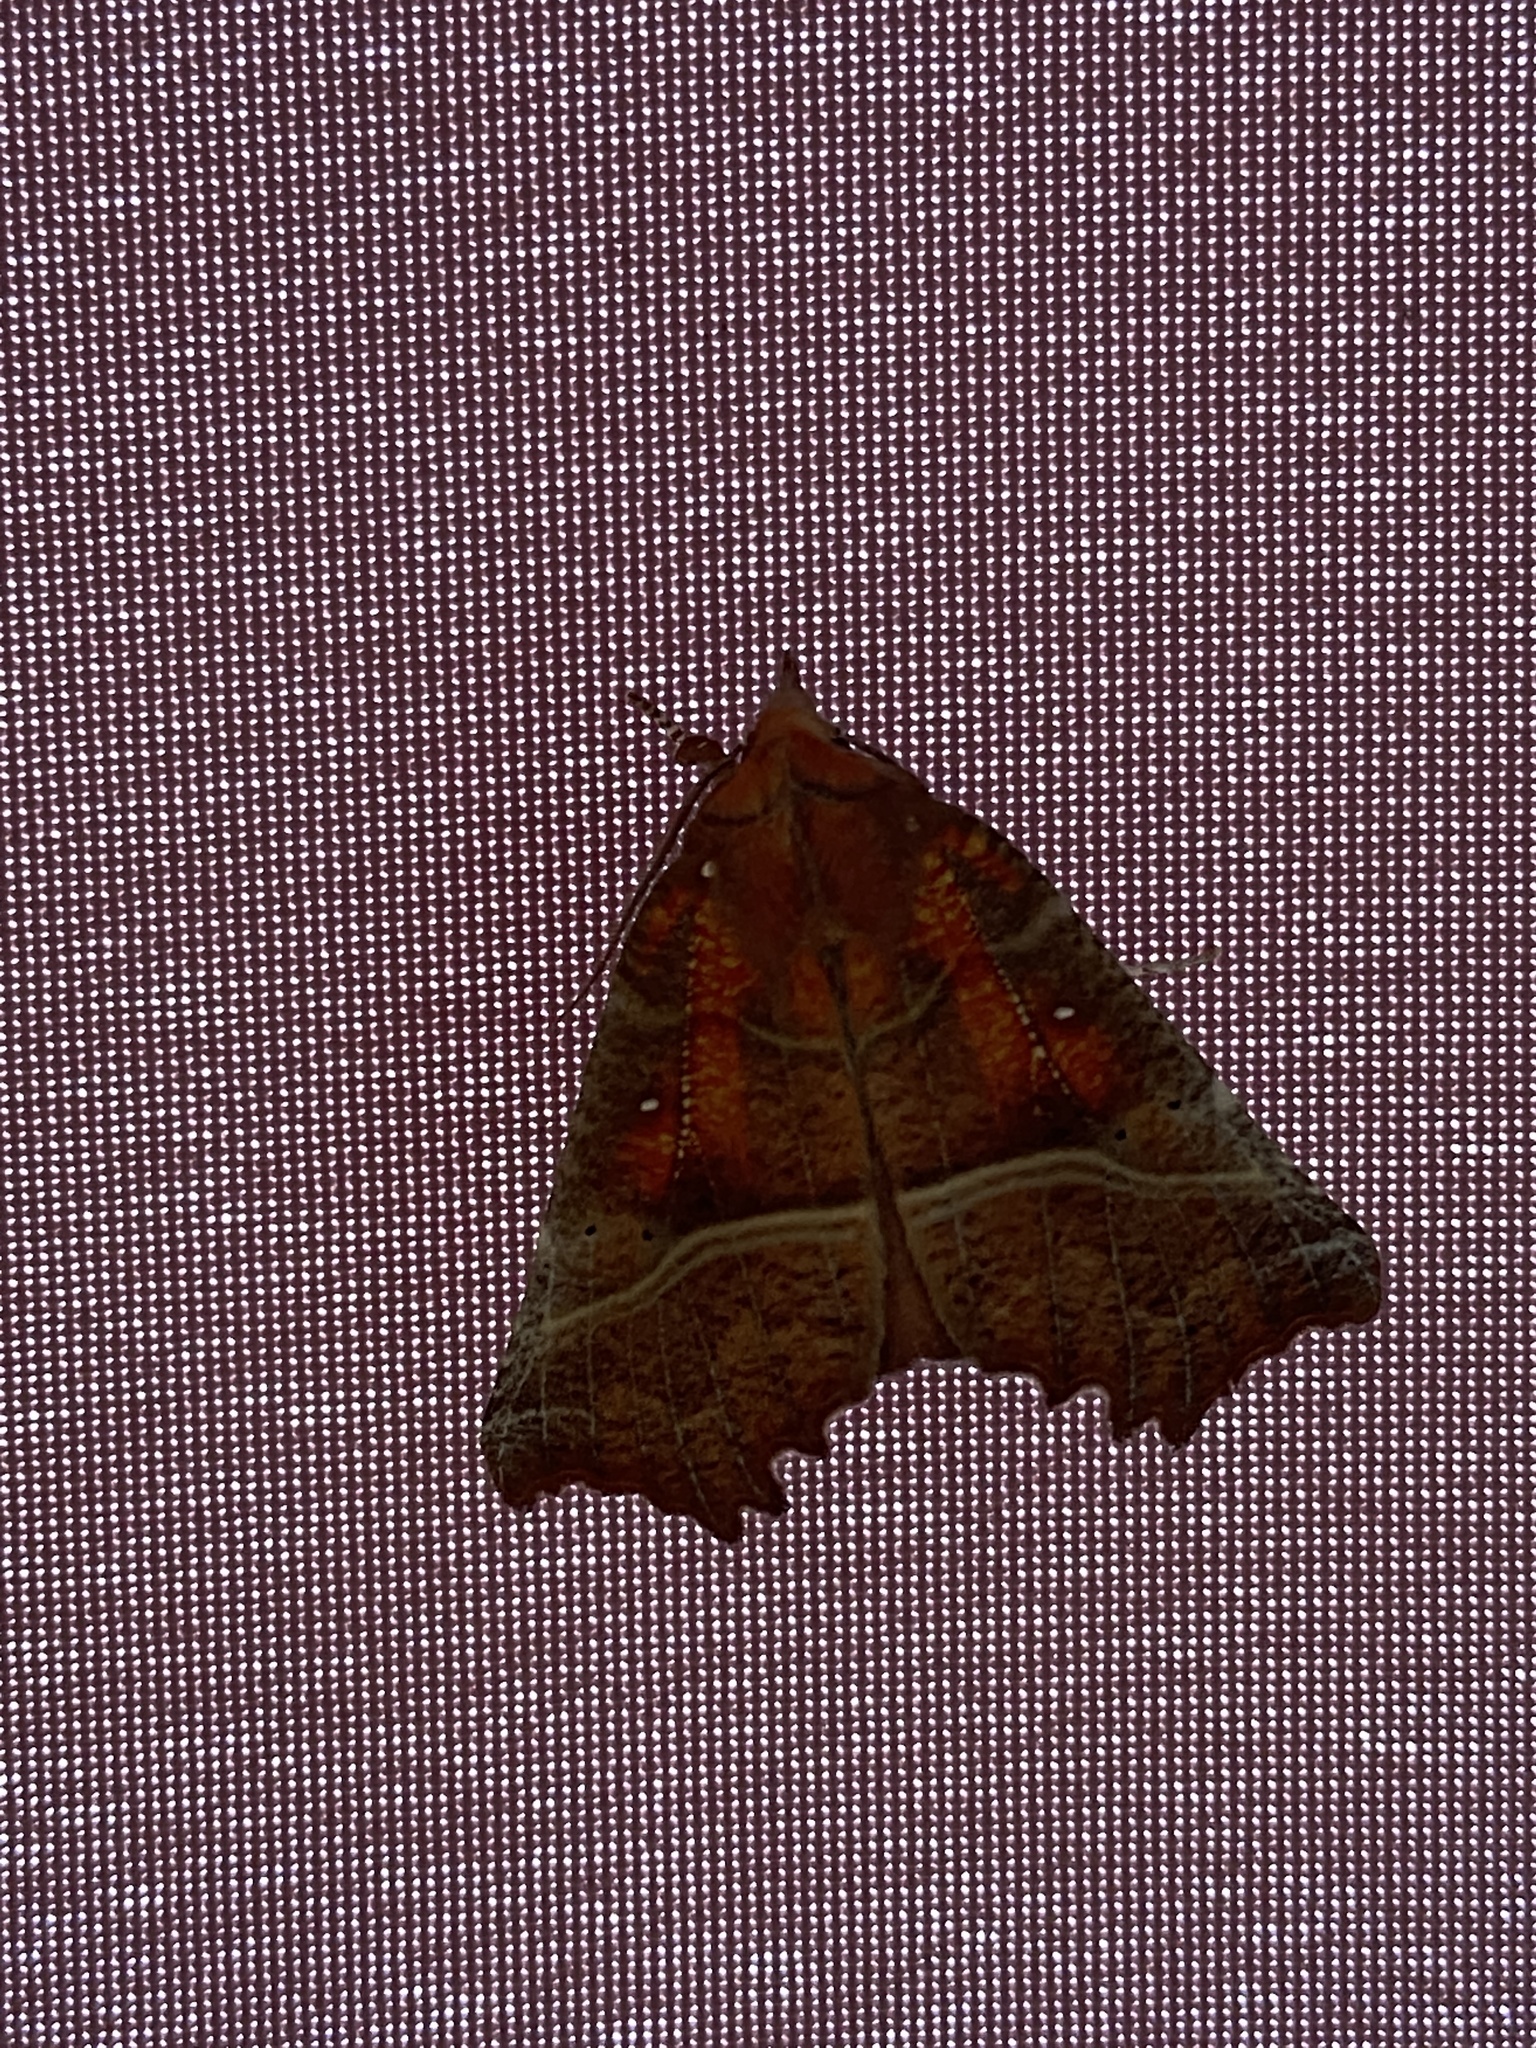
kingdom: Animalia
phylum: Arthropoda
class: Insecta
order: Lepidoptera
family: Erebidae
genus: Scoliopteryx
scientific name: Scoliopteryx libatrix
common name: Herald
